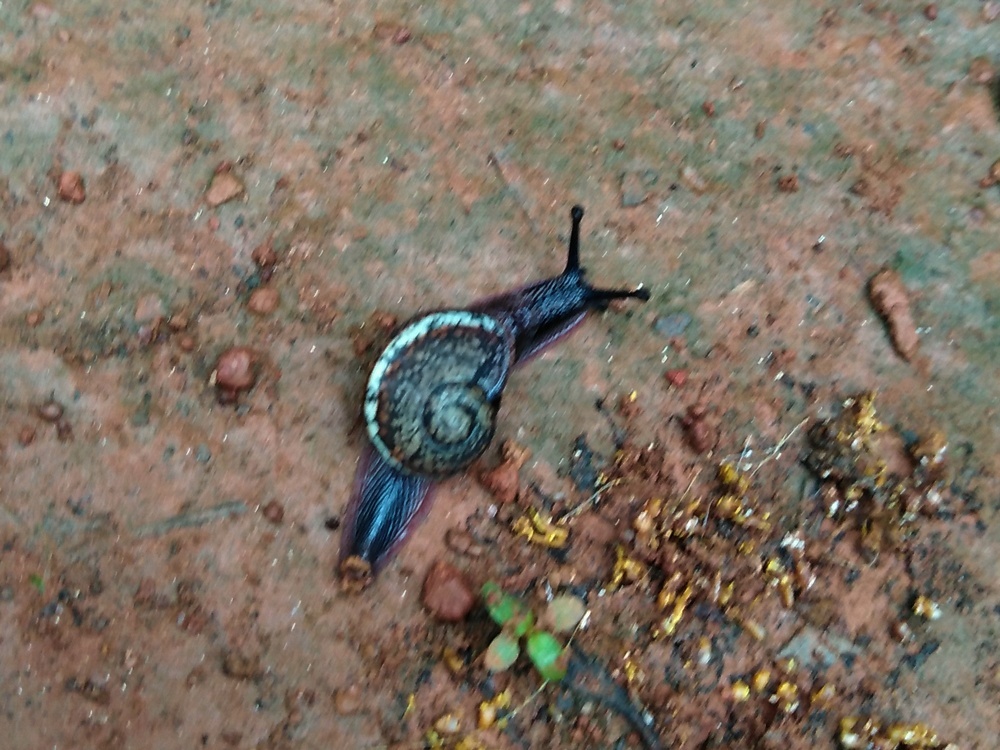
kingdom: Animalia
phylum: Mollusca
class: Gastropoda
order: Stylommatophora
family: Ariophantidae
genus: Ariophanta
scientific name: Ariophanta exilis
